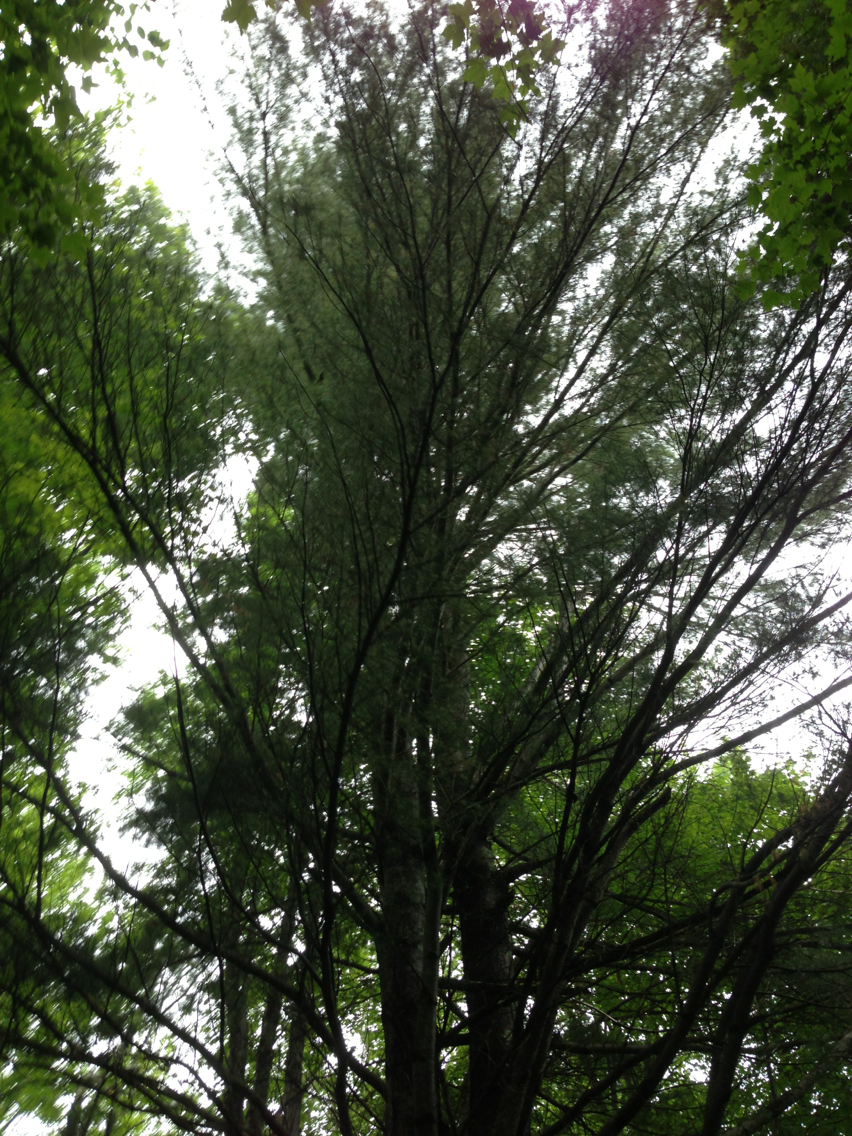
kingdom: Plantae
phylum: Tracheophyta
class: Pinopsida
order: Pinales
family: Pinaceae
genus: Pinus
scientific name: Pinus strobus
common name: Weymouth pine
